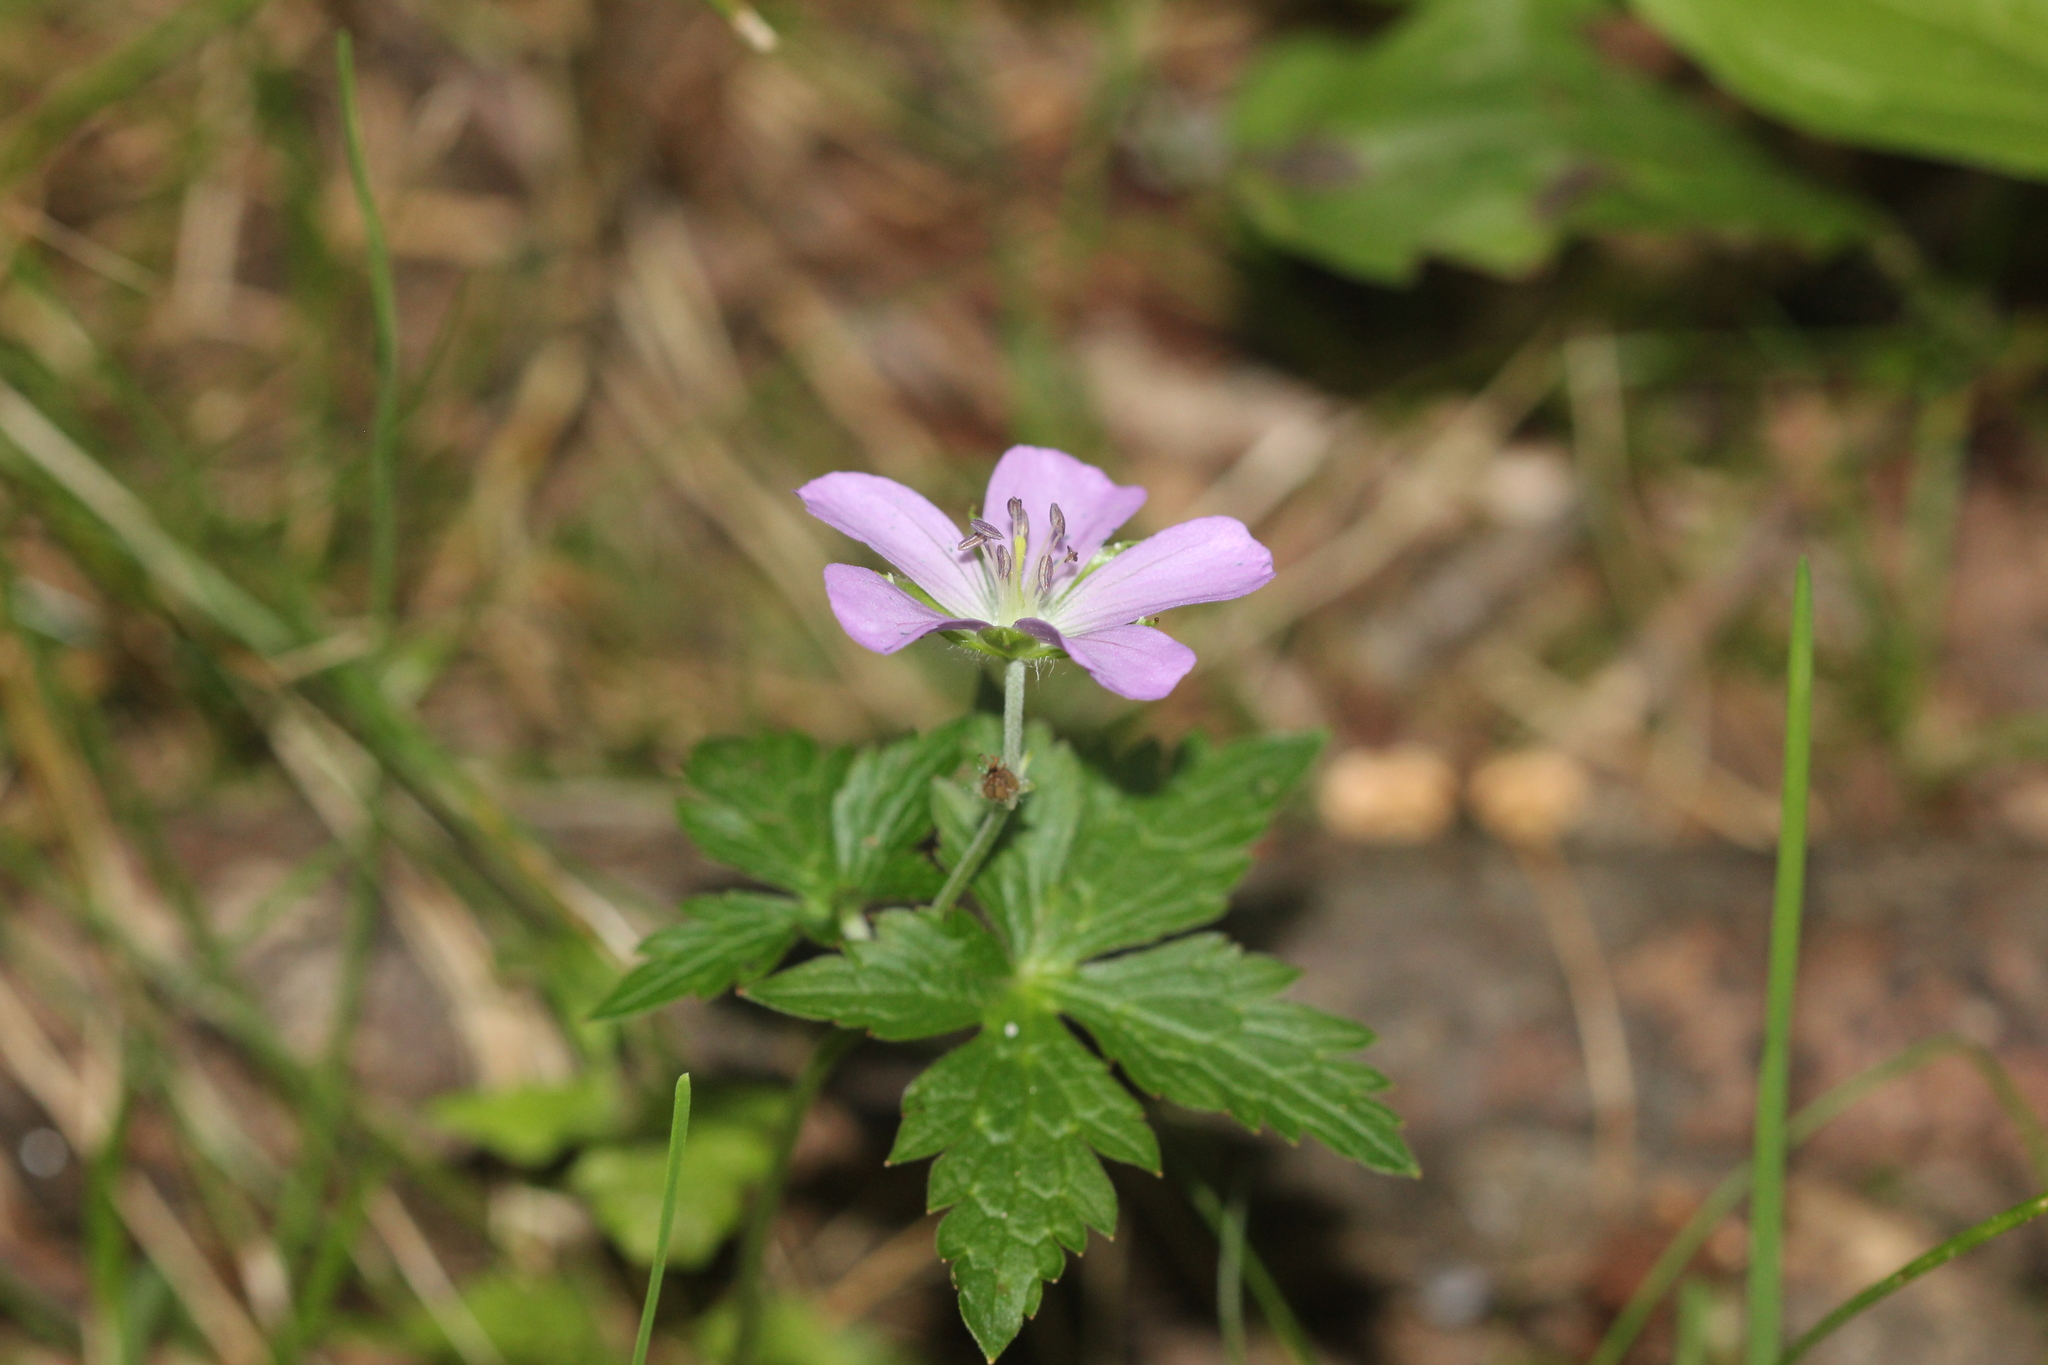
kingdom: Plantae
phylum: Tracheophyta
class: Magnoliopsida
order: Geraniales
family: Geraniaceae
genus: Geranium
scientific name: Geranium maculatum
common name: Spotted geranium
